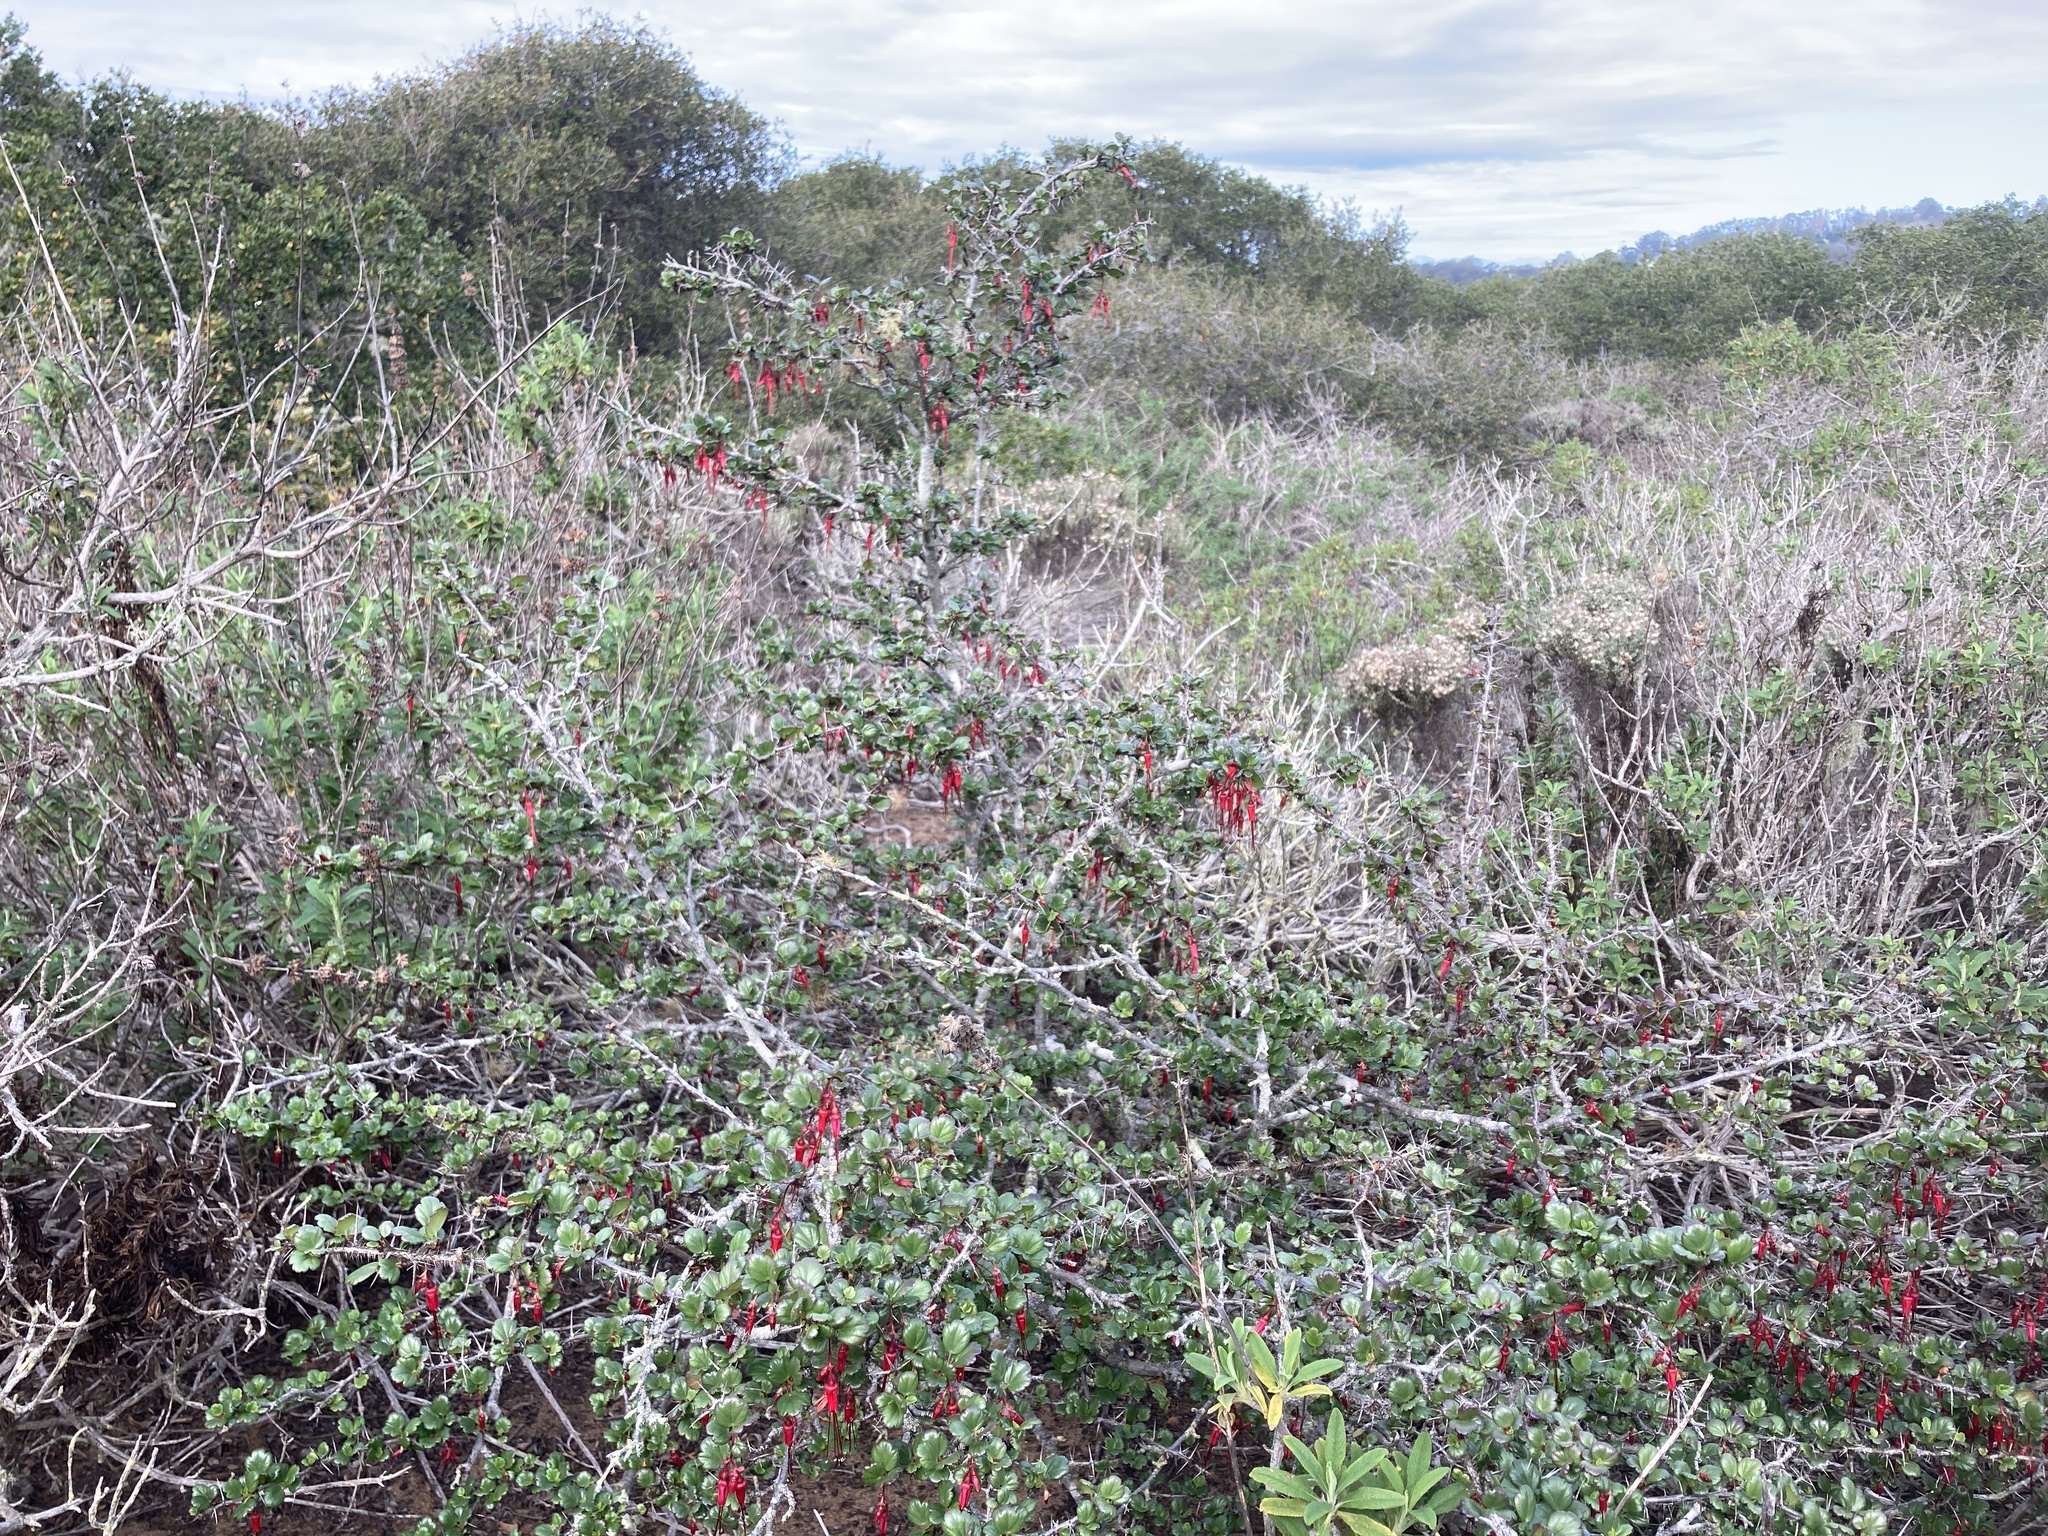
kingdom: Plantae
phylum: Tracheophyta
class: Magnoliopsida
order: Saxifragales
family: Grossulariaceae
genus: Ribes
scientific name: Ribes speciosum
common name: Fuchsia-flower gooseberry
